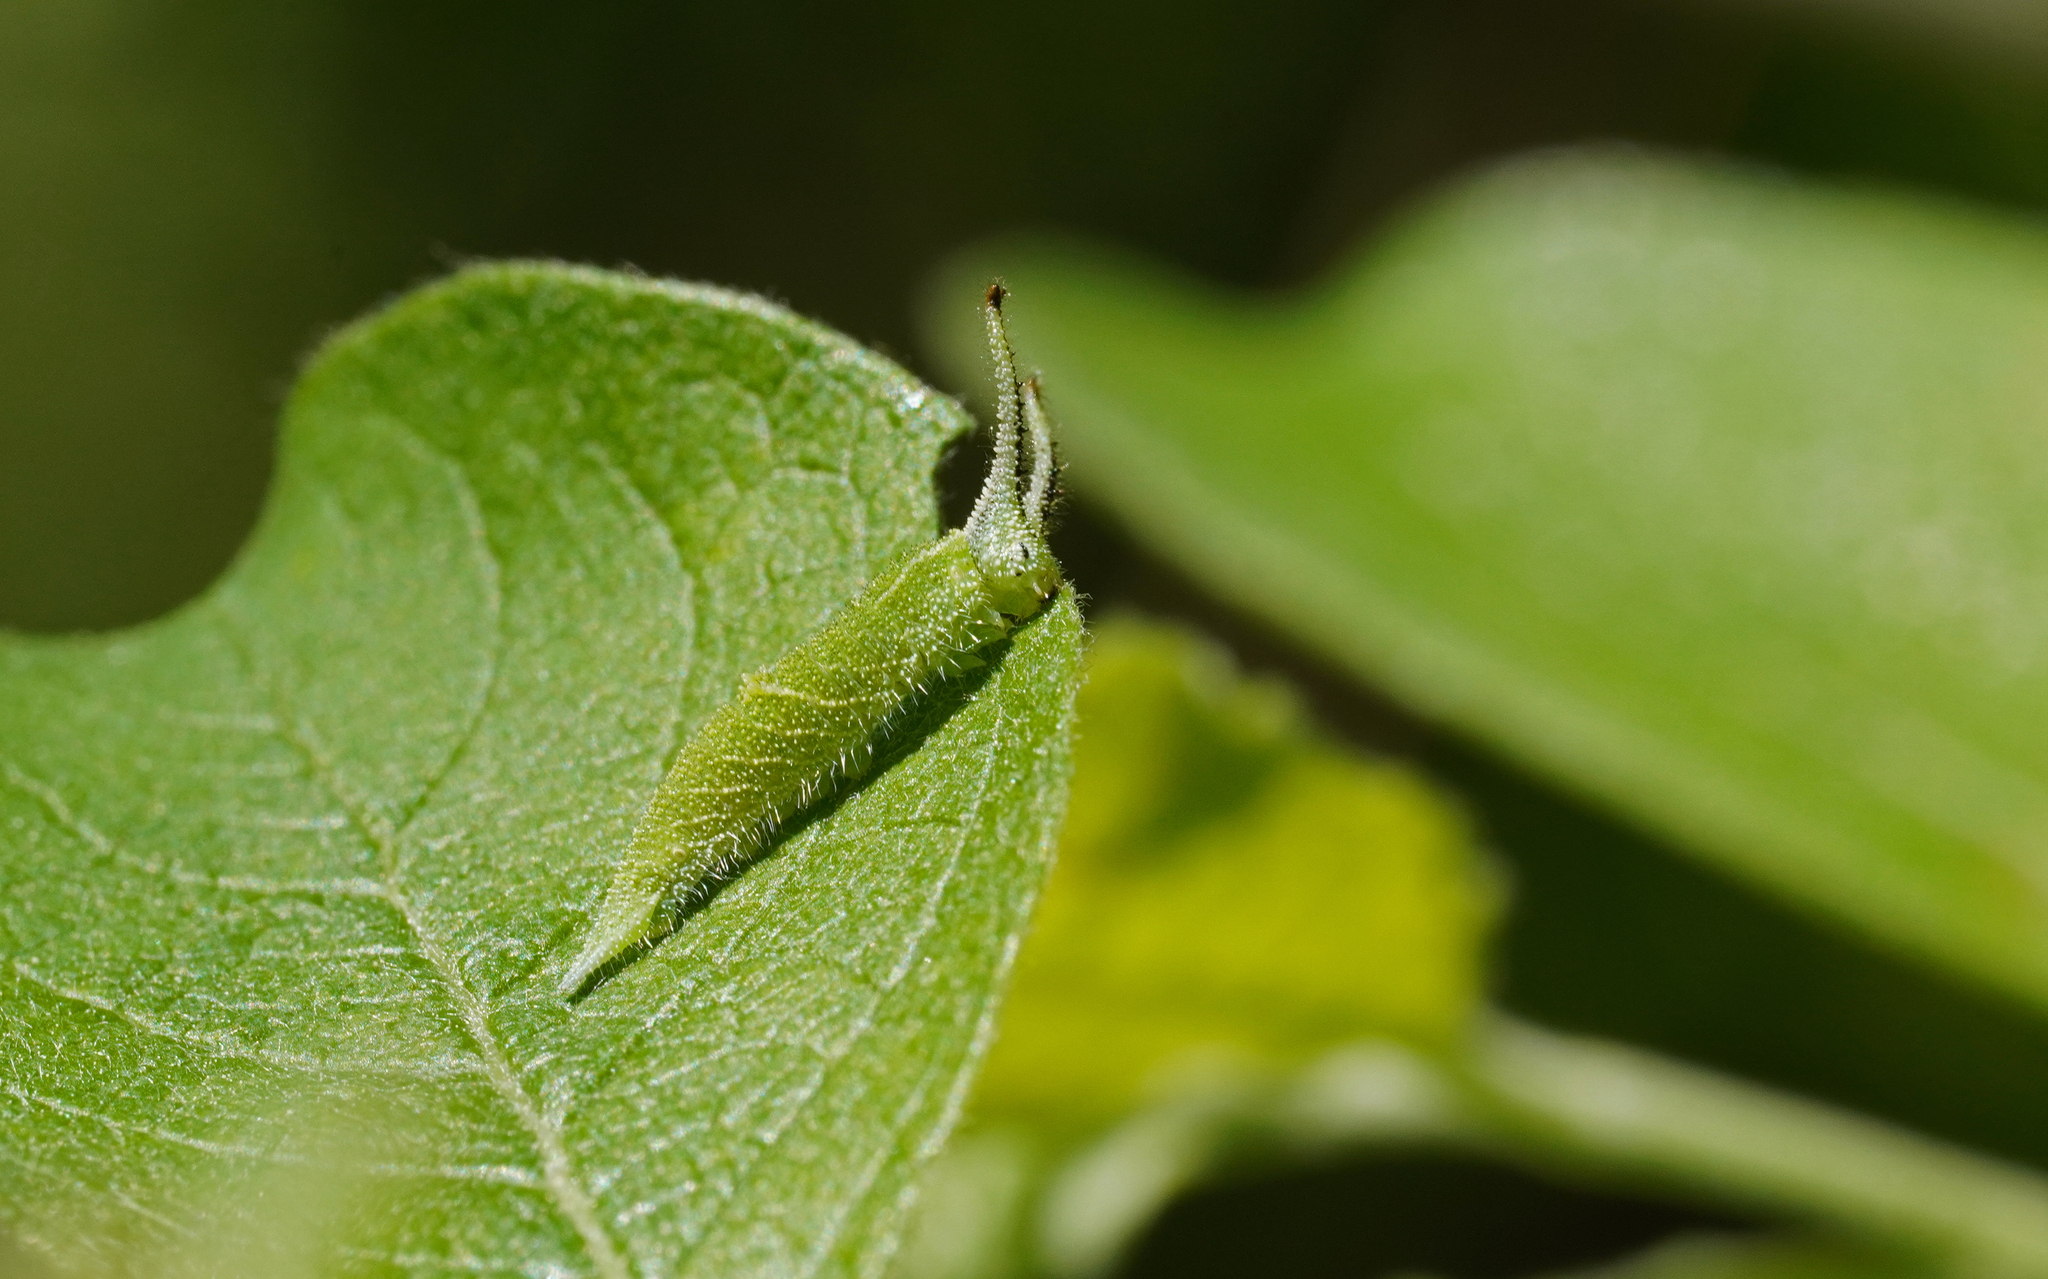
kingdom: Animalia
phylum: Arthropoda
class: Insecta
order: Lepidoptera
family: Nymphalidae
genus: Apatura
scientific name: Apatura iris
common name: Purple emperor
